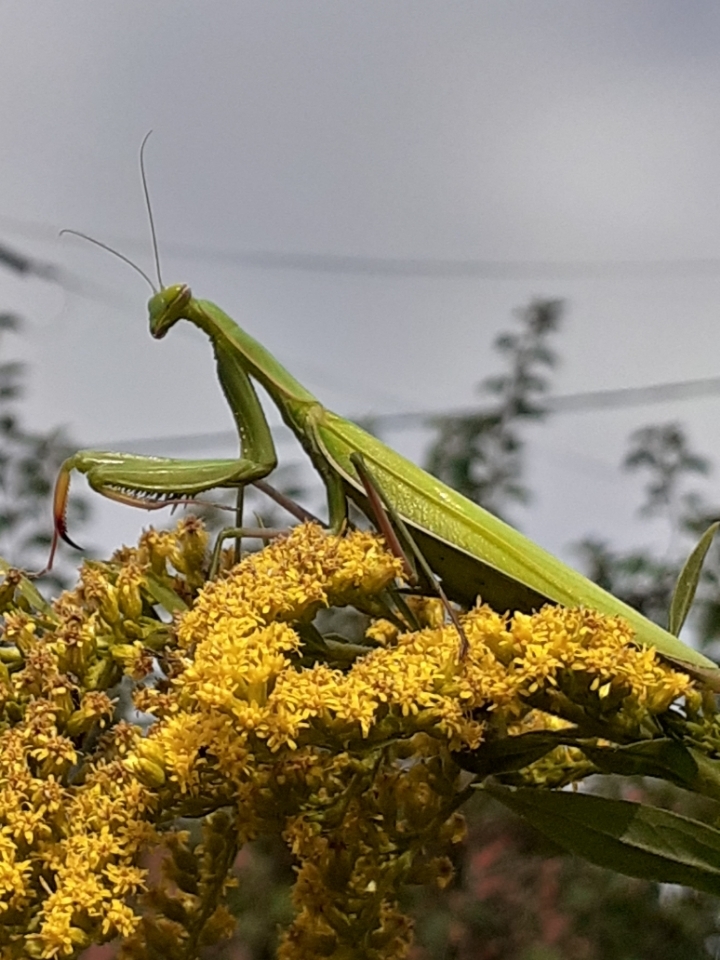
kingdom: Animalia
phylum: Arthropoda
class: Insecta
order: Mantodea
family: Mantidae
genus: Mantis
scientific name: Mantis religiosa
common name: Praying mantis
